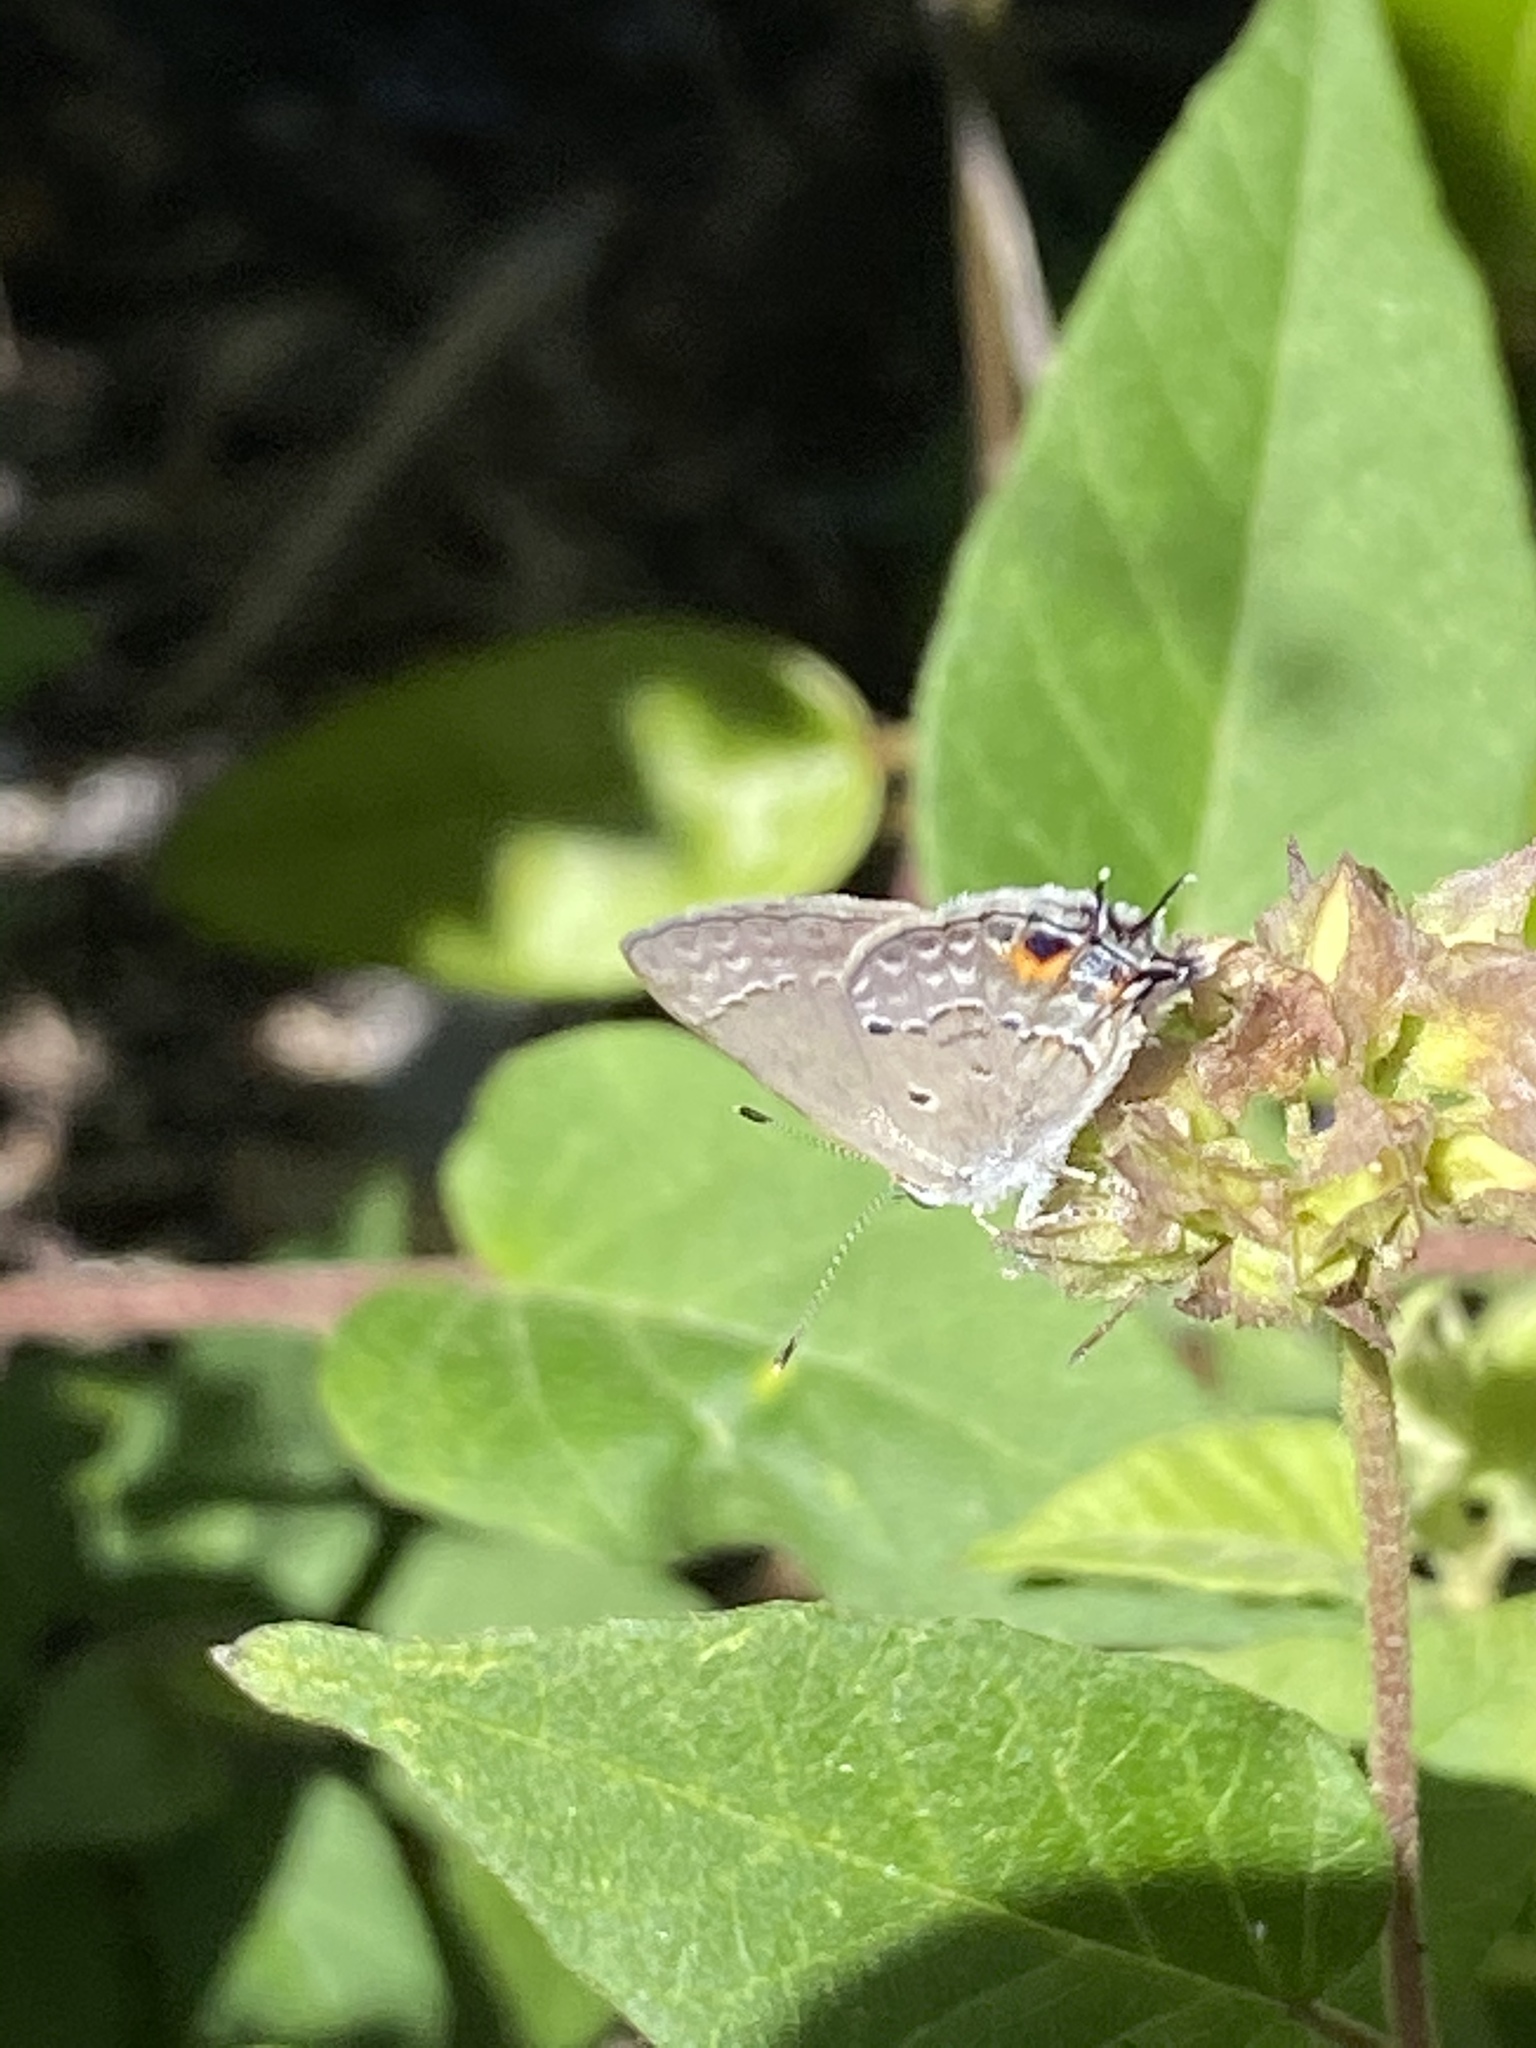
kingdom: Animalia
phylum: Arthropoda
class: Insecta
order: Lepidoptera
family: Lycaenidae
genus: Callicista
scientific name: Callicista columella
